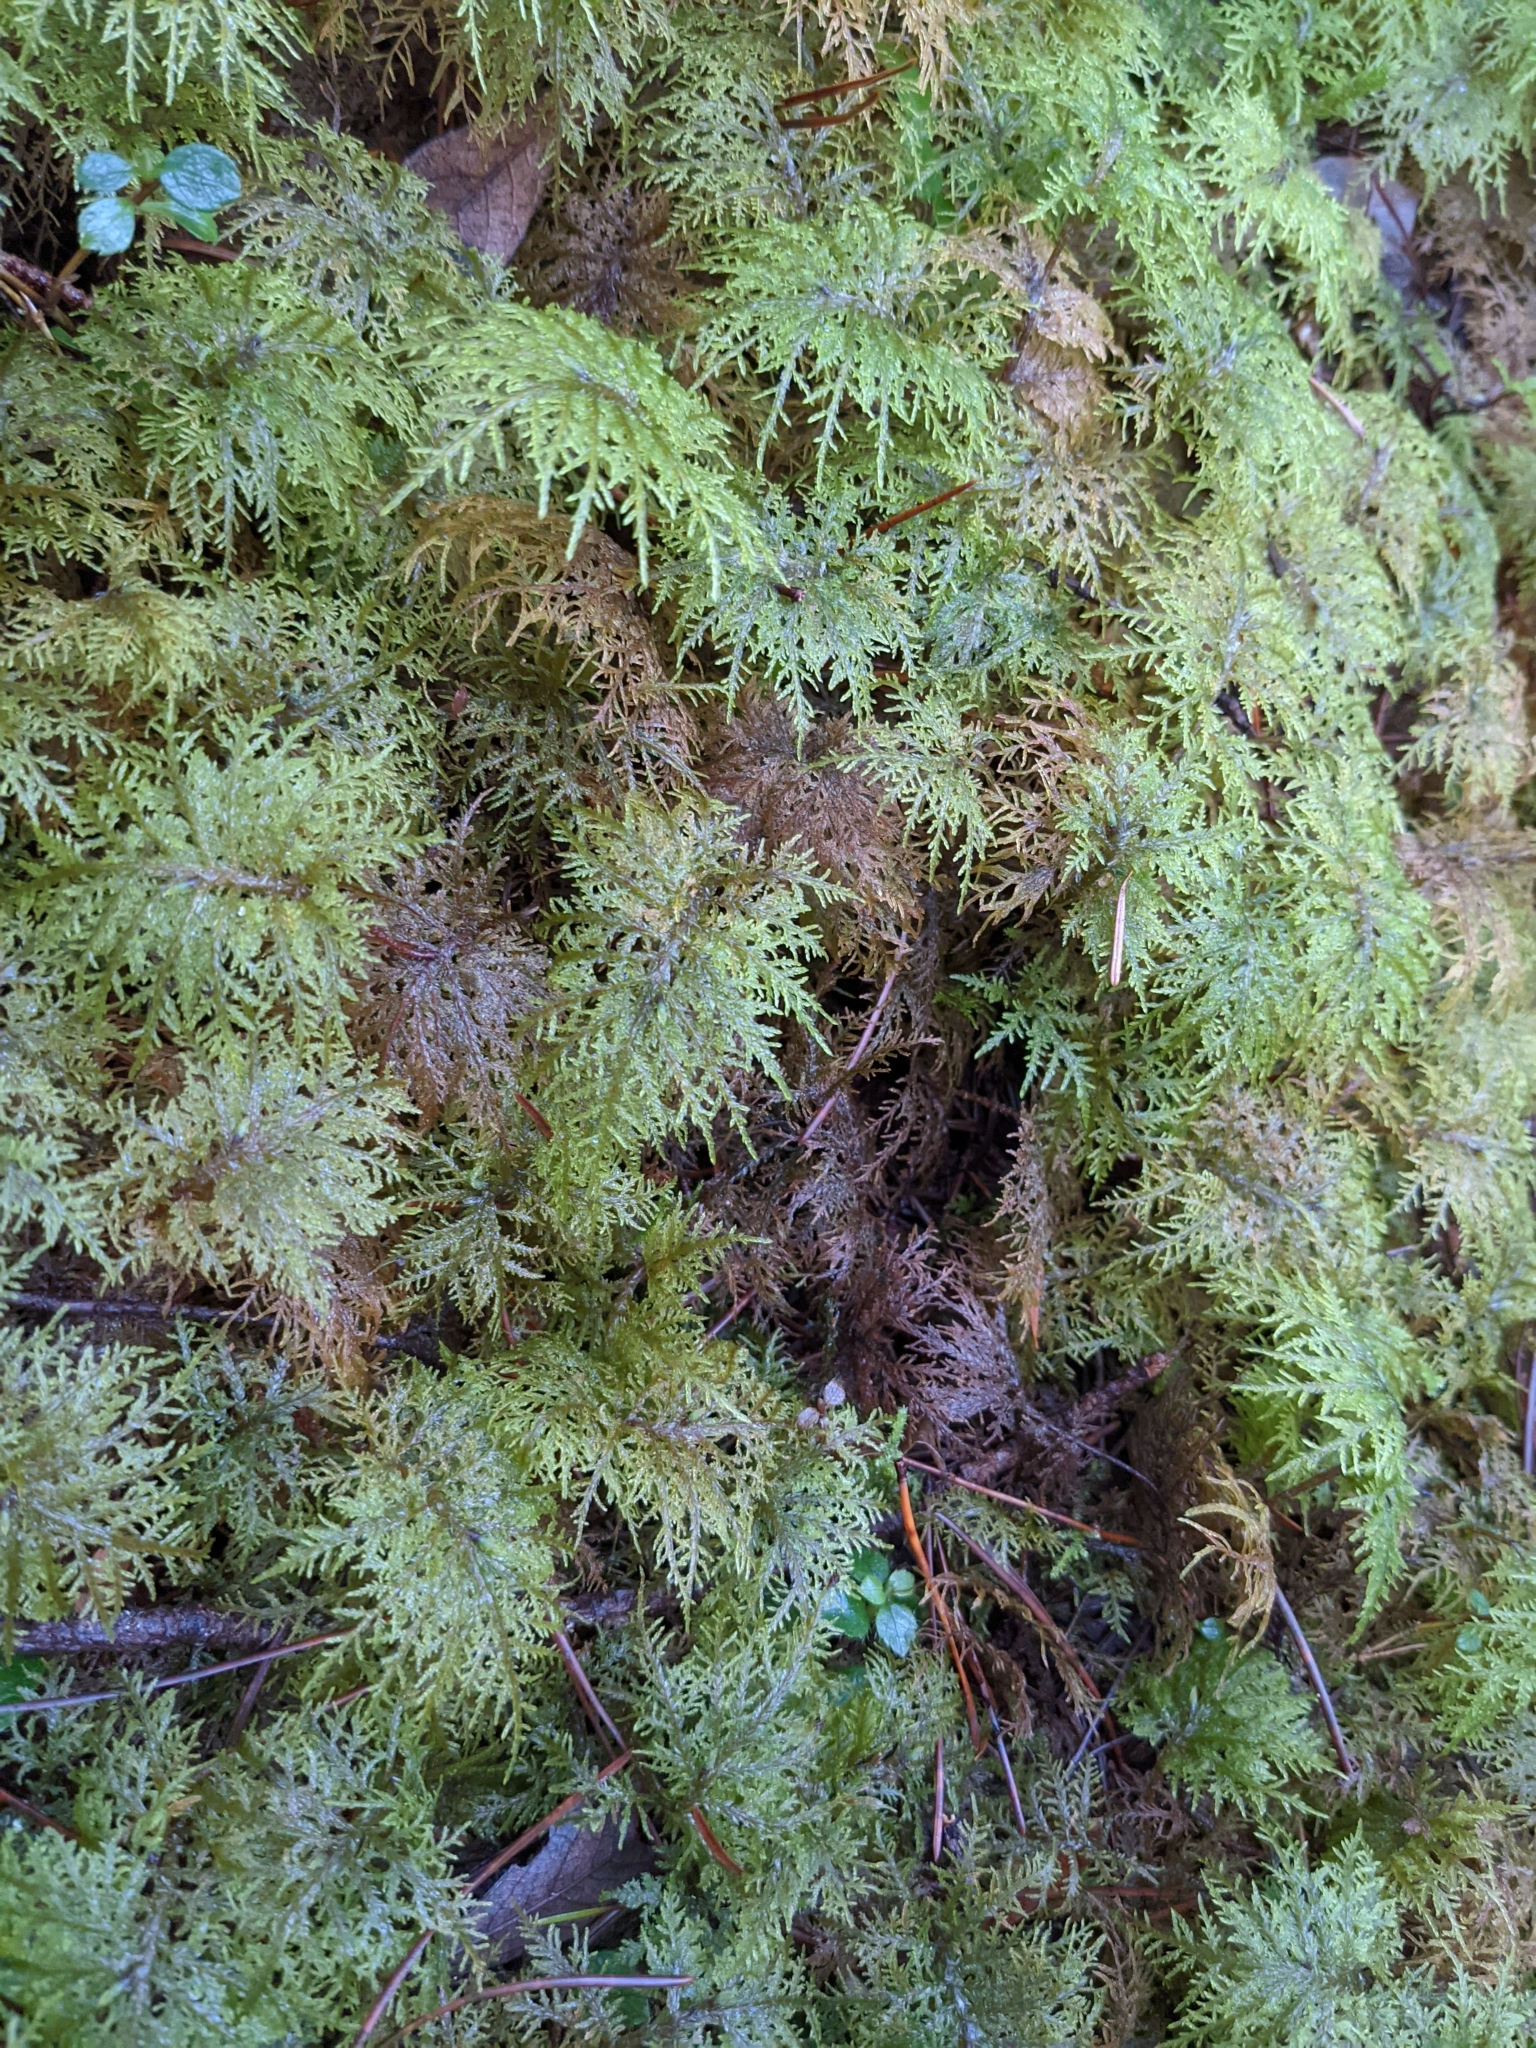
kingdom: Plantae
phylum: Bryophyta
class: Bryopsida
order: Hypnales
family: Hylocomiaceae
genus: Hylocomium
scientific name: Hylocomium splendens
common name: Stairstep moss
